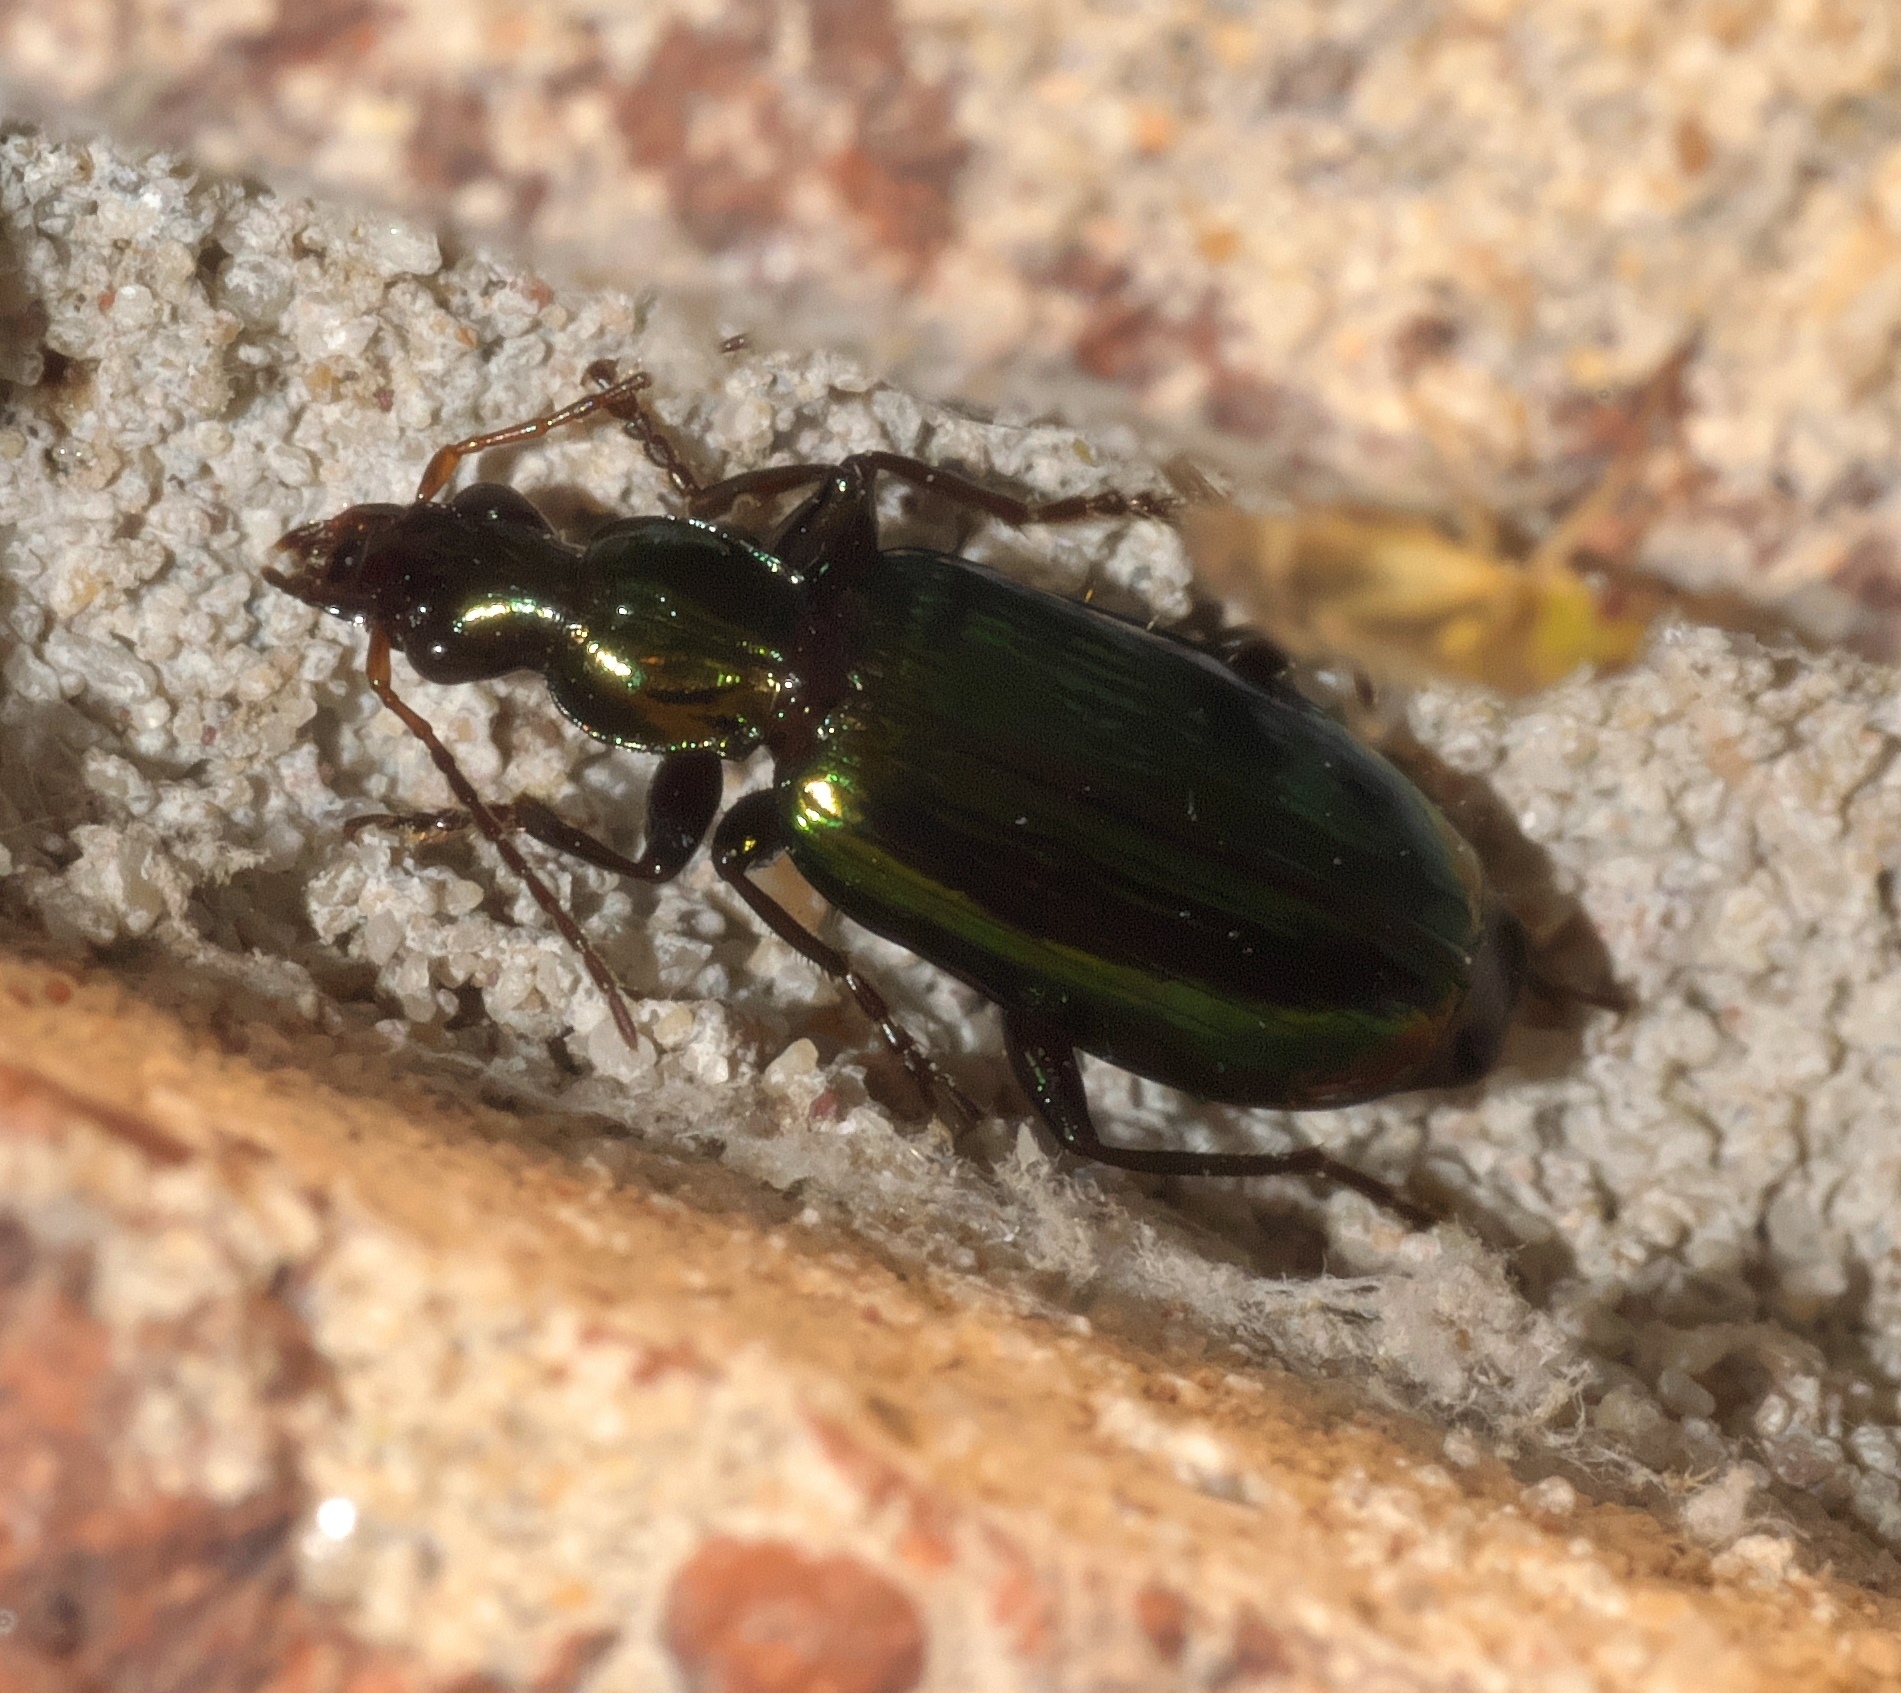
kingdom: Animalia
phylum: Arthropoda
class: Insecta
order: Coleoptera
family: Carabidae
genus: Calleida
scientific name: Calleida viridipennis
